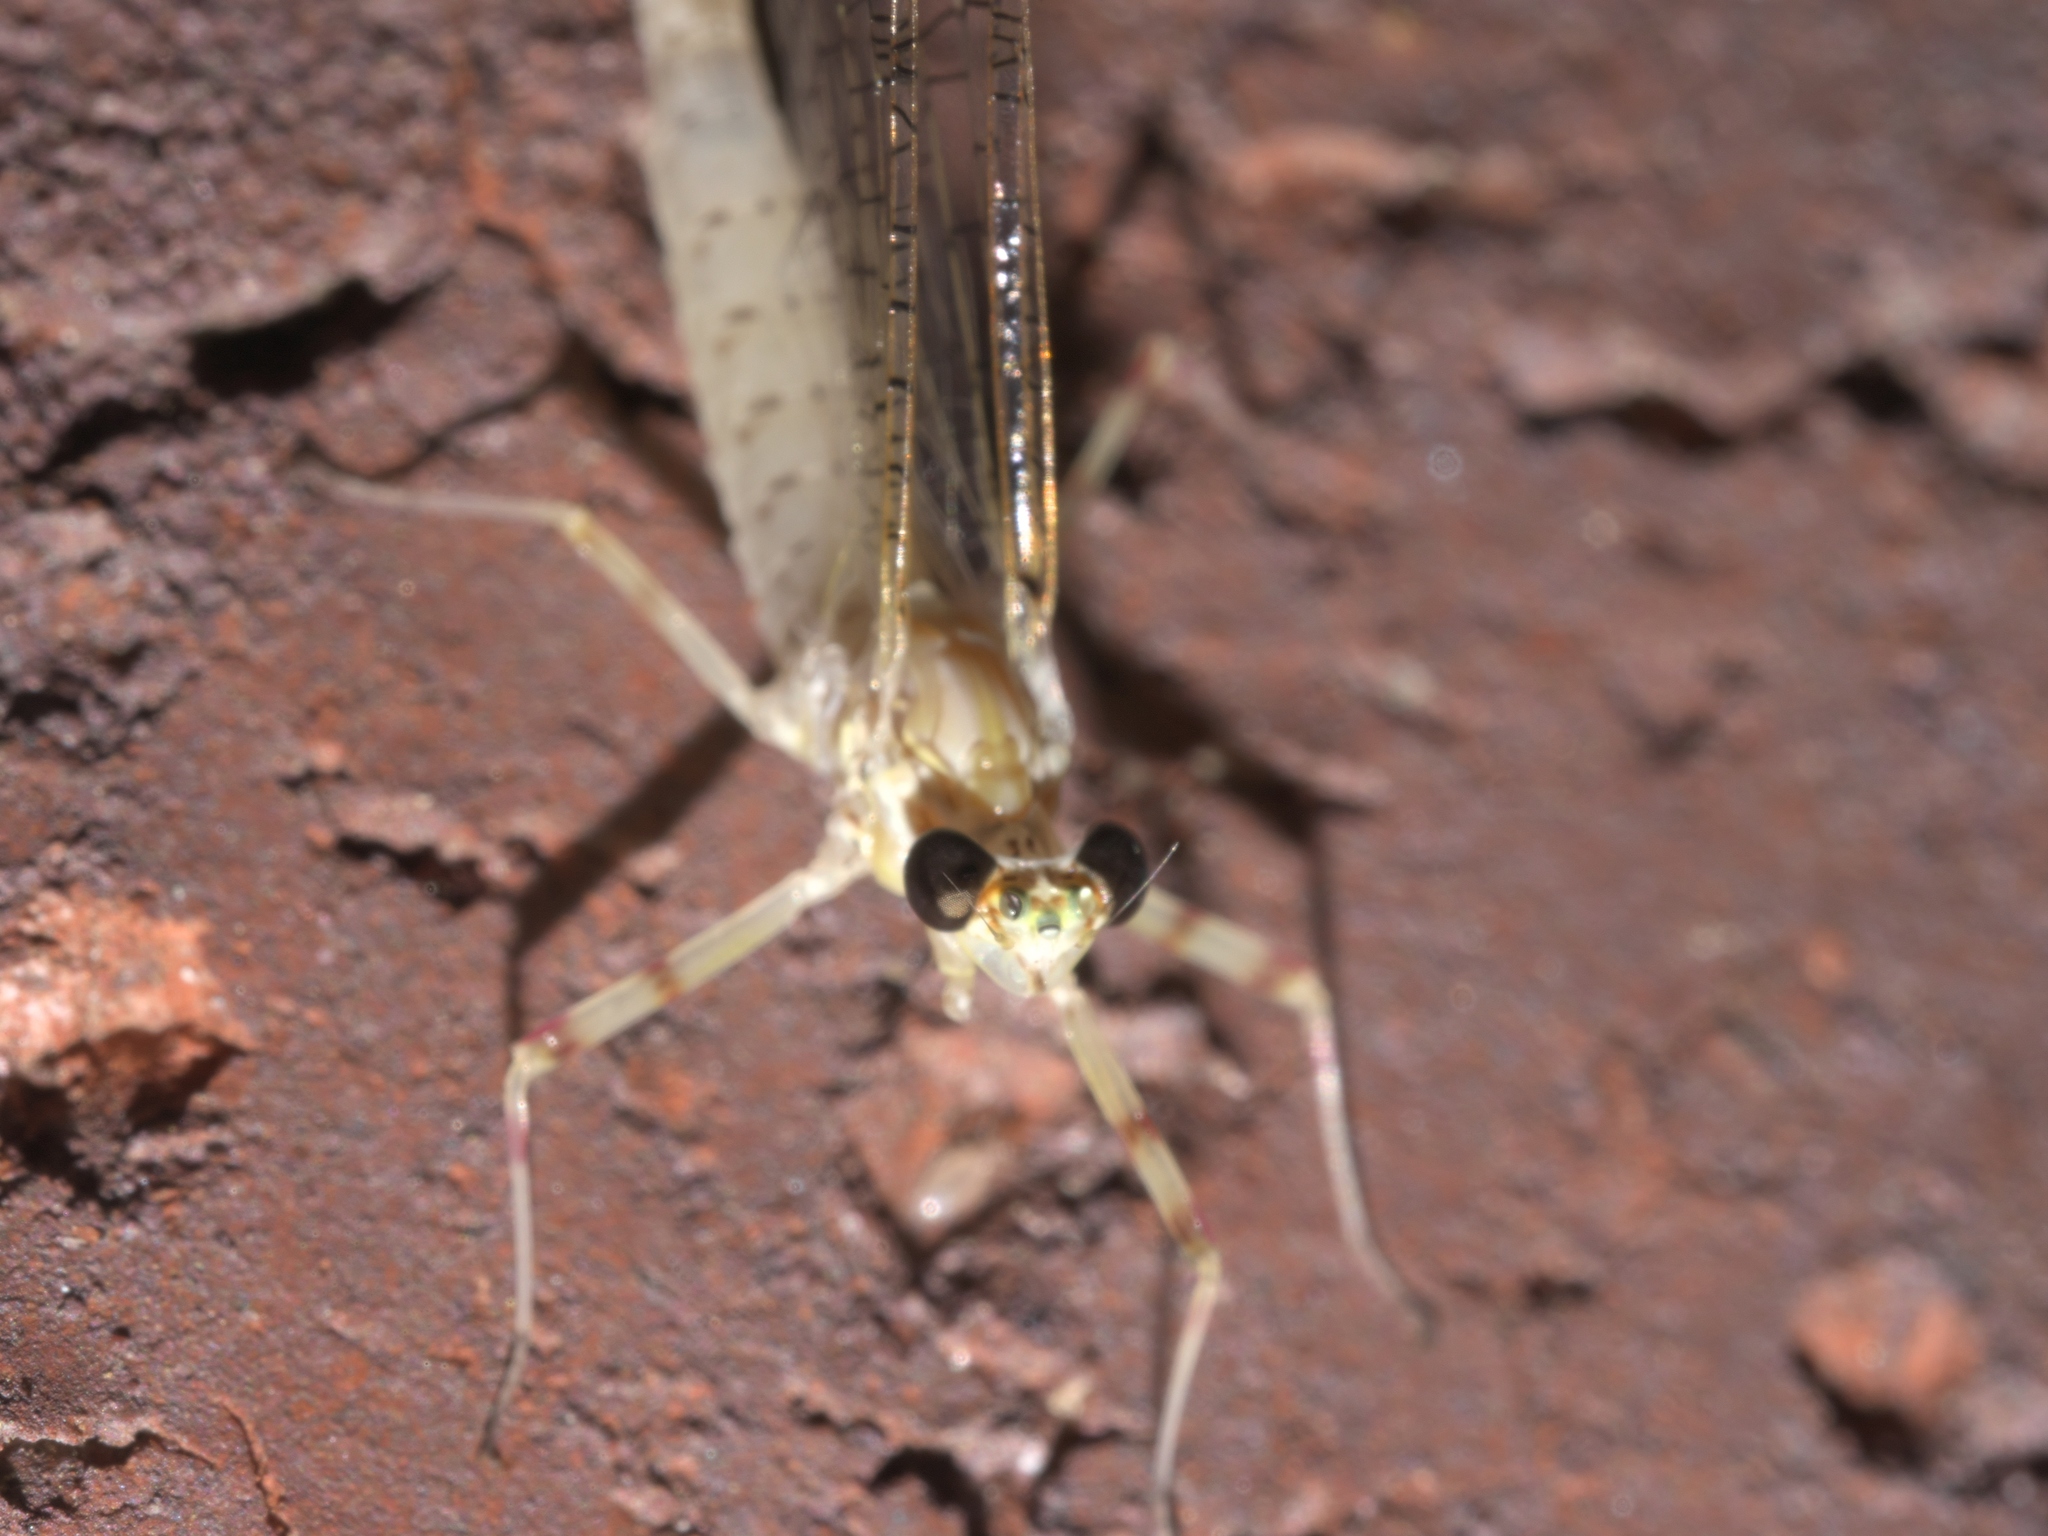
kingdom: Animalia
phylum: Arthropoda
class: Insecta
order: Ephemeroptera
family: Heptageniidae
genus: Stenonema
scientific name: Stenonema femoratum
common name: Dark cahill
